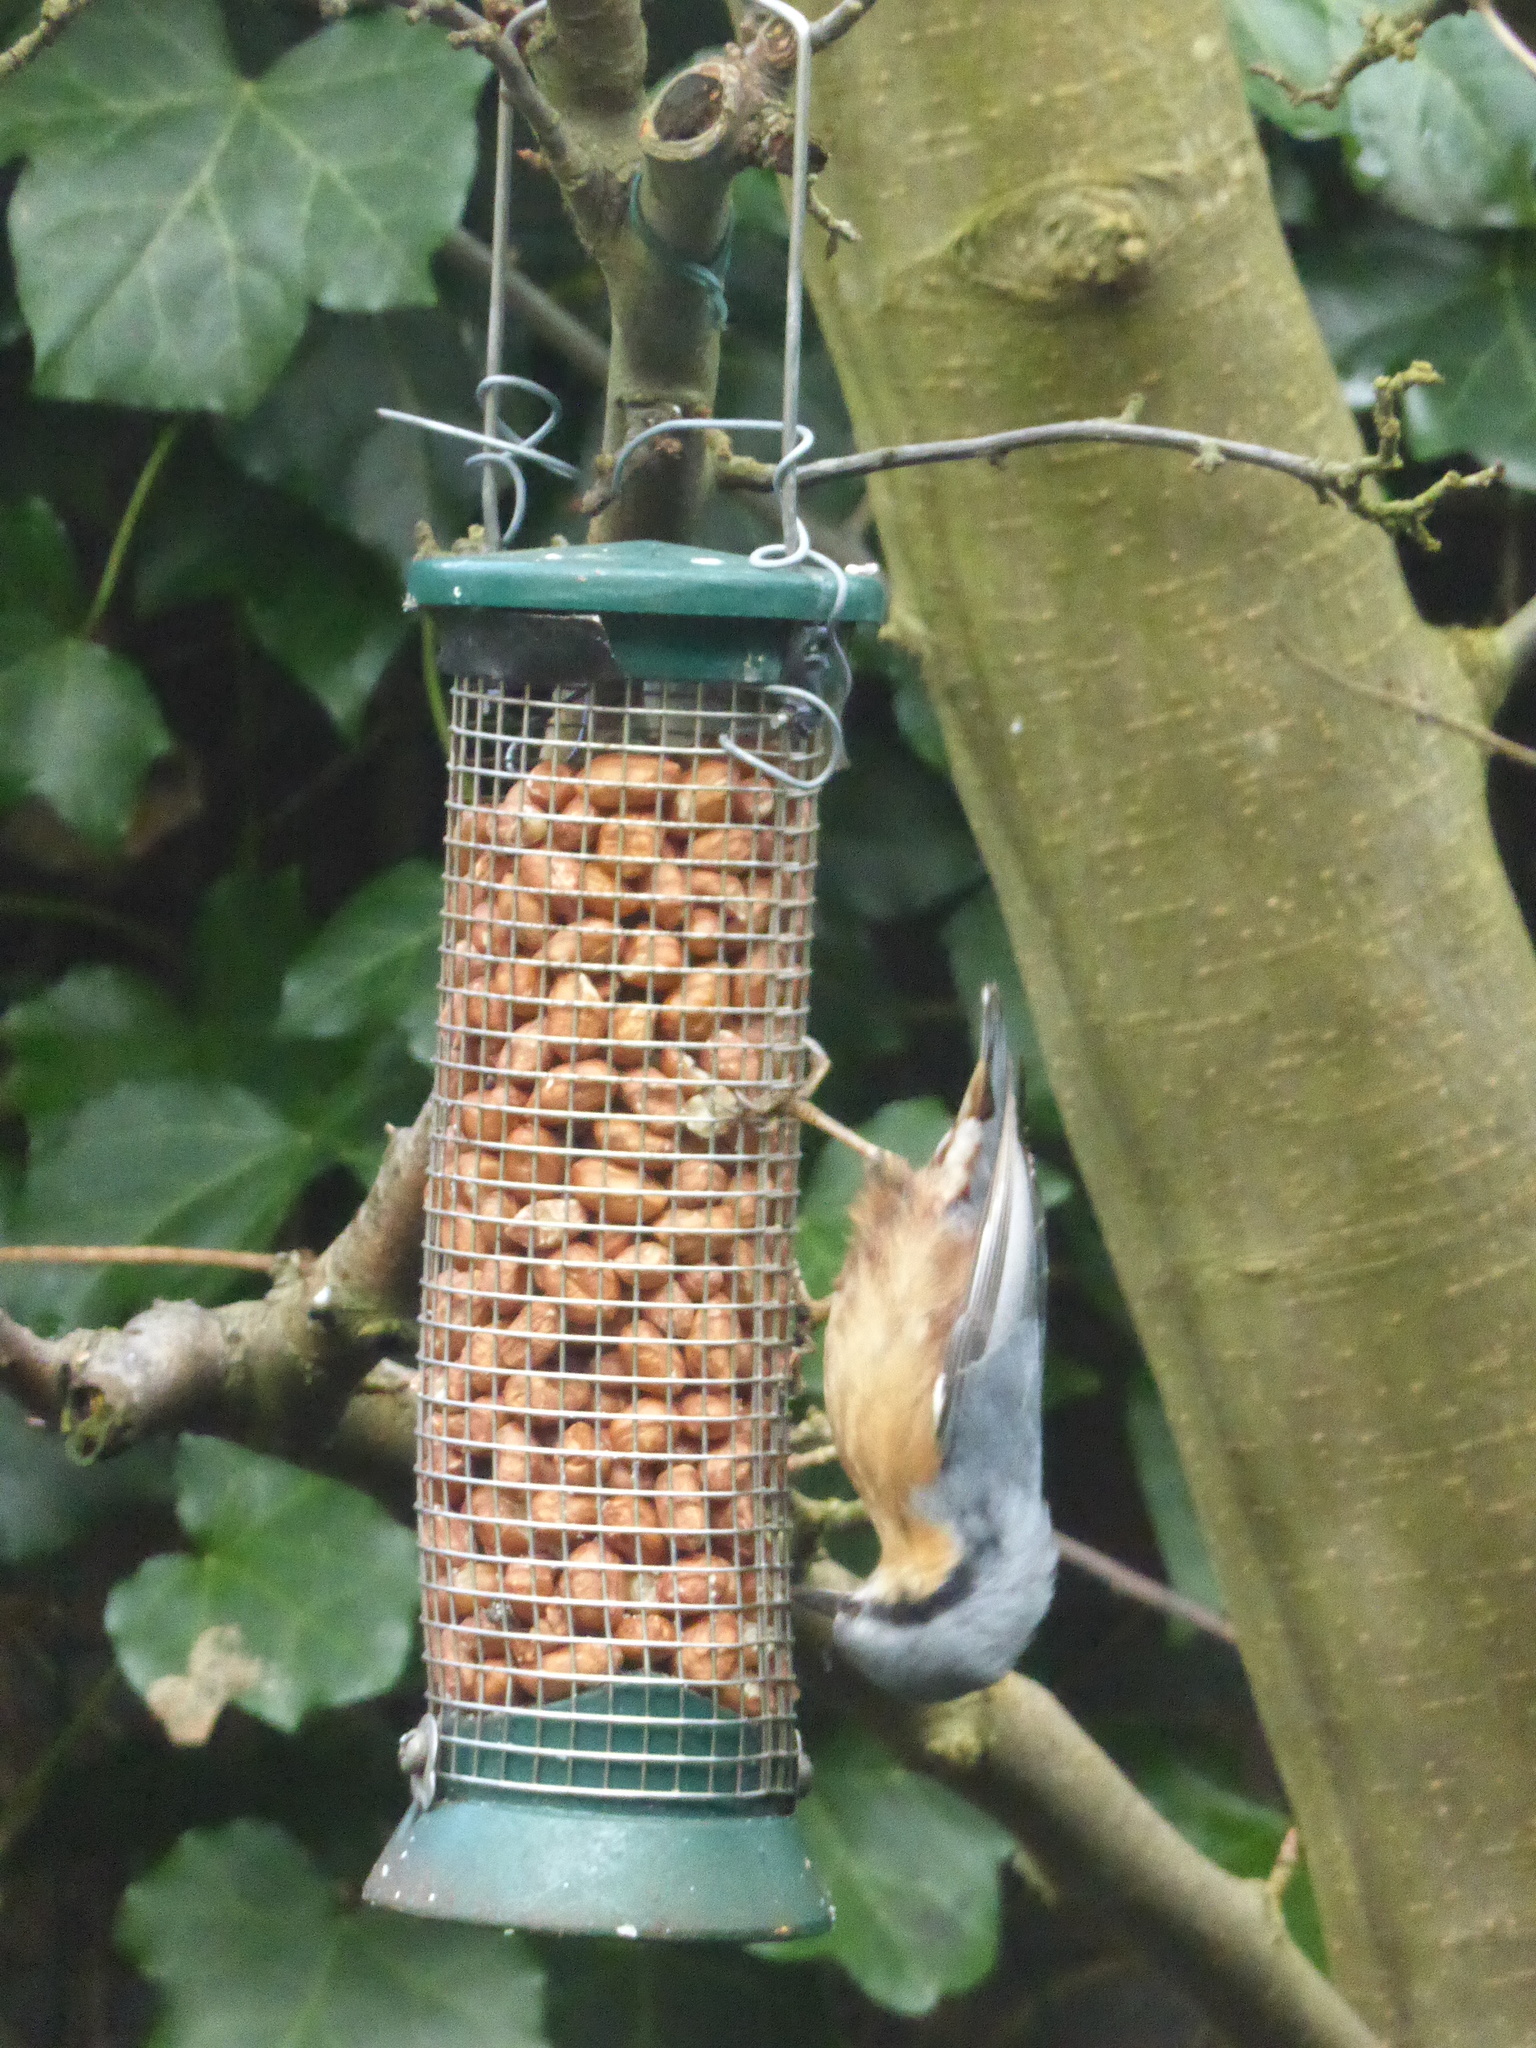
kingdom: Animalia
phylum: Chordata
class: Aves
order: Passeriformes
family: Sittidae
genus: Sitta
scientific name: Sitta europaea
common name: Eurasian nuthatch
